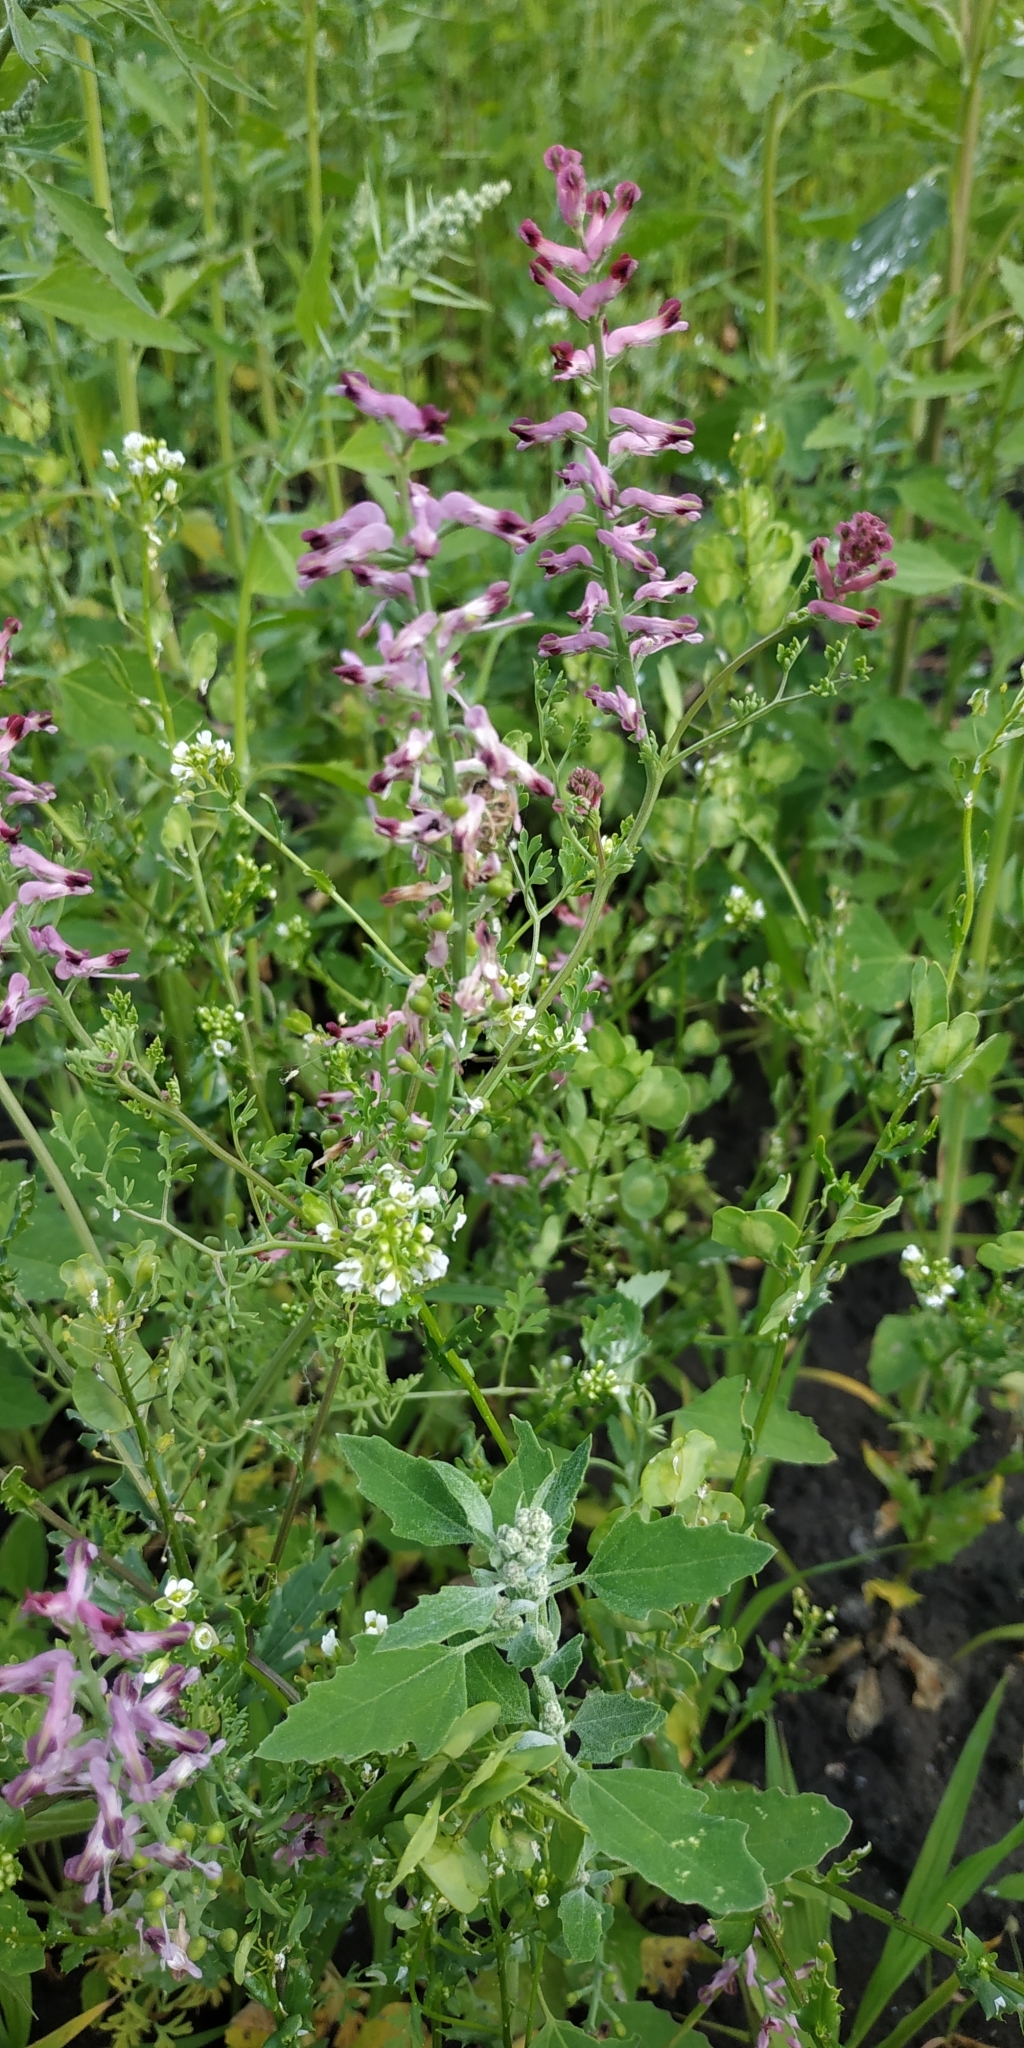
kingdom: Plantae
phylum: Tracheophyta
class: Magnoliopsida
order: Ranunculales
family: Papaveraceae
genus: Fumaria
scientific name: Fumaria officinalis
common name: Common fumitory
